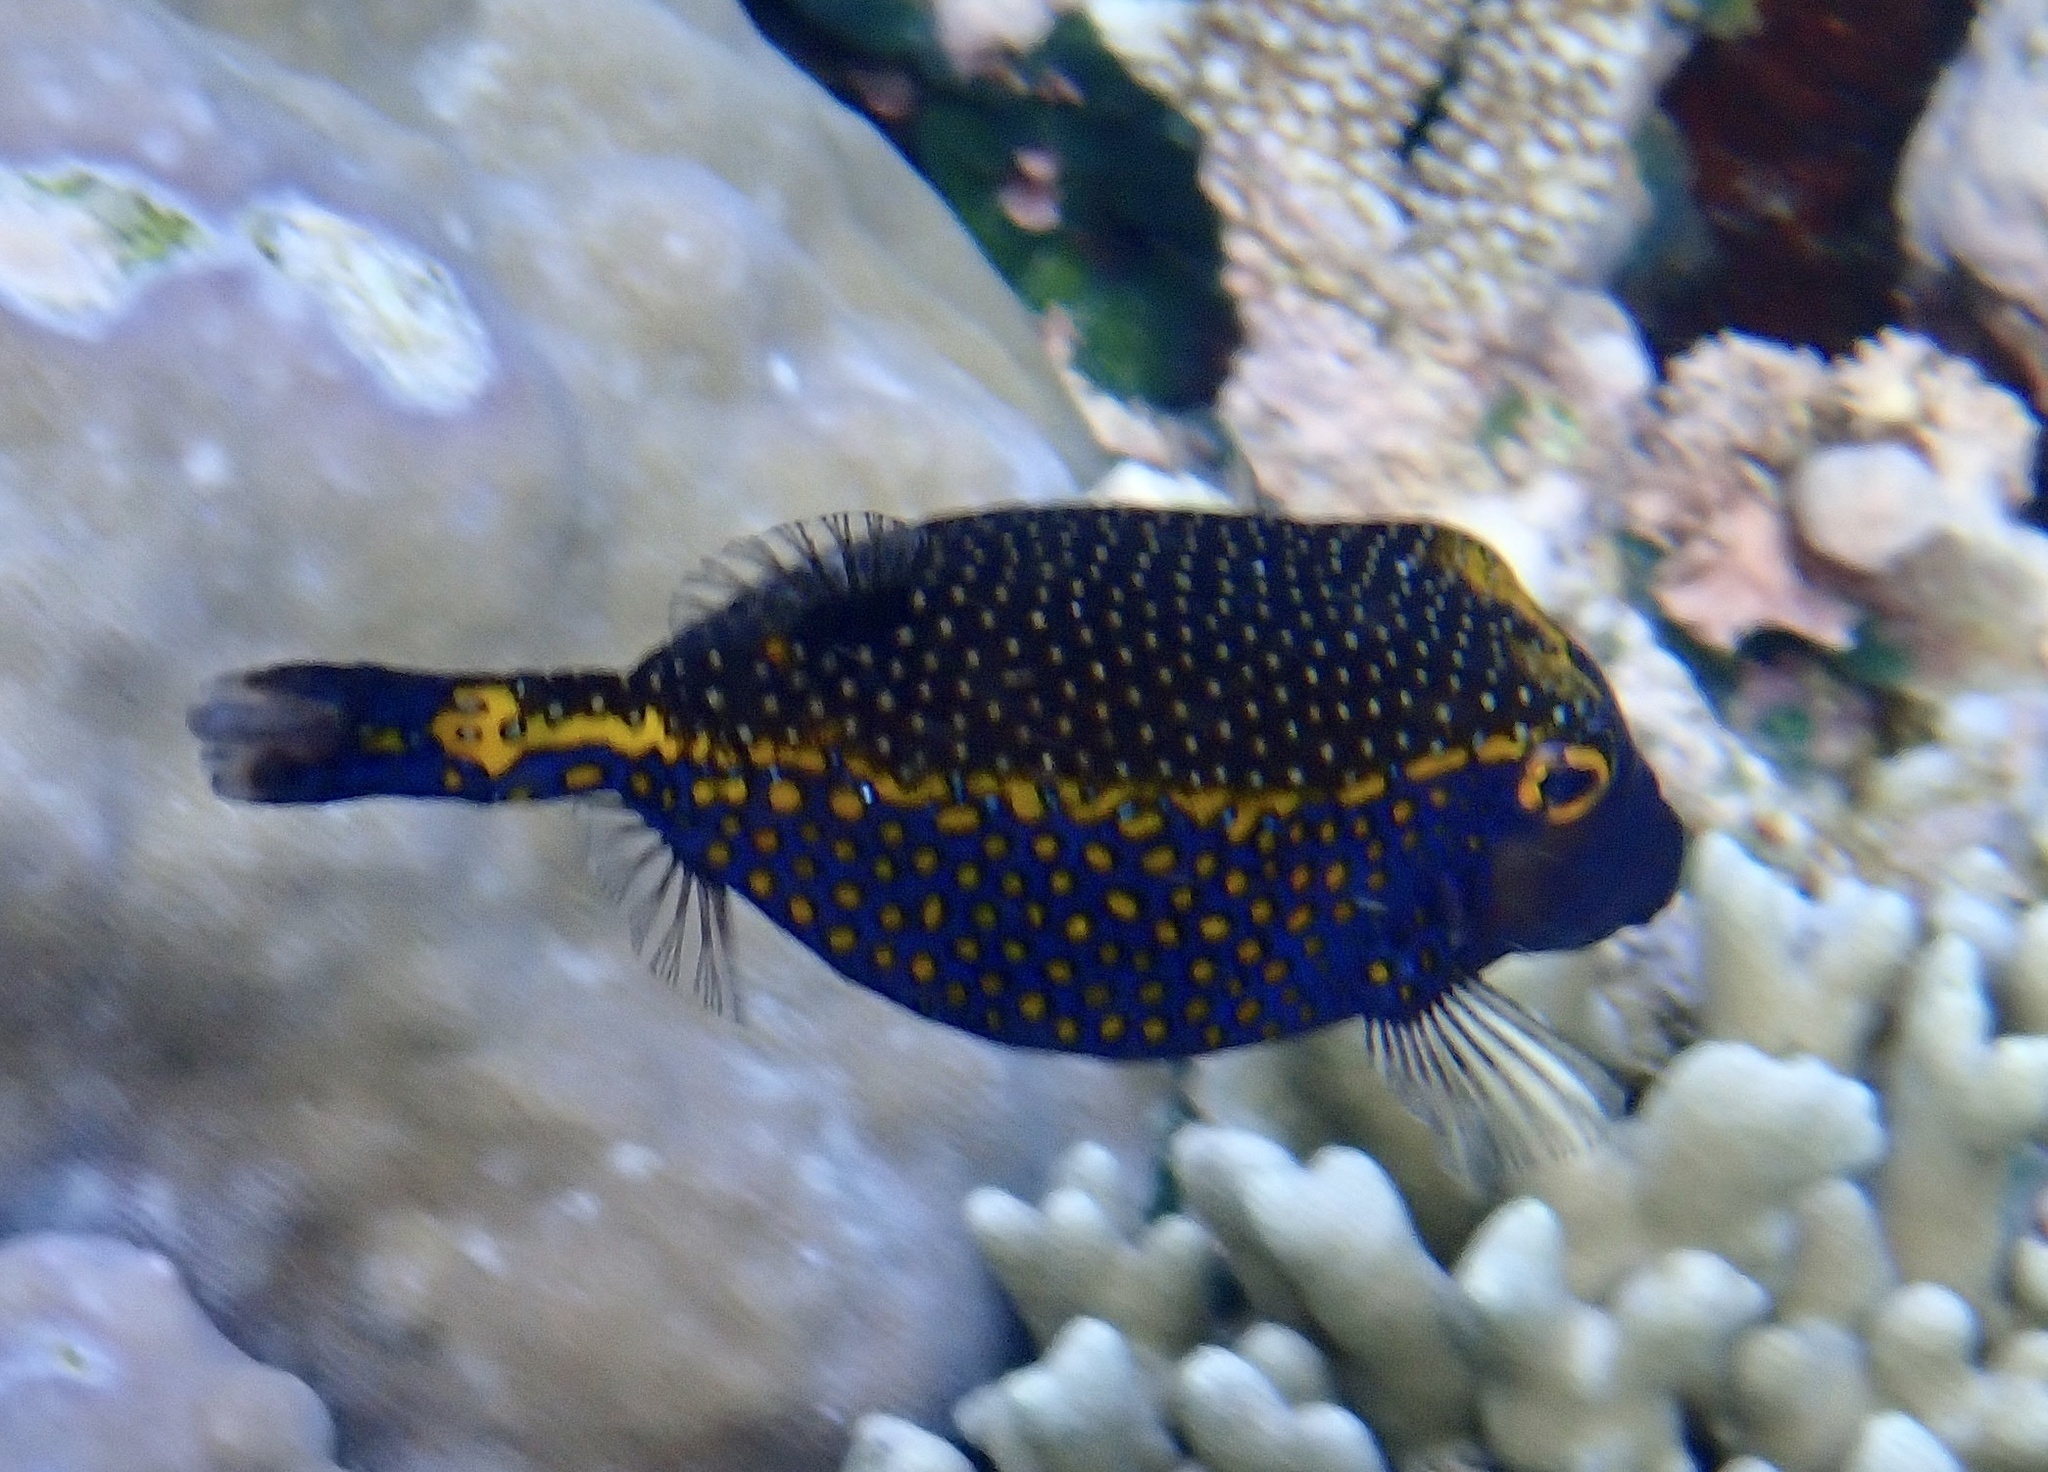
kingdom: Animalia
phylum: Chordata
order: Tetraodontiformes
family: Ostraciidae
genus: Ostracion
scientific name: Ostracion meleagris
